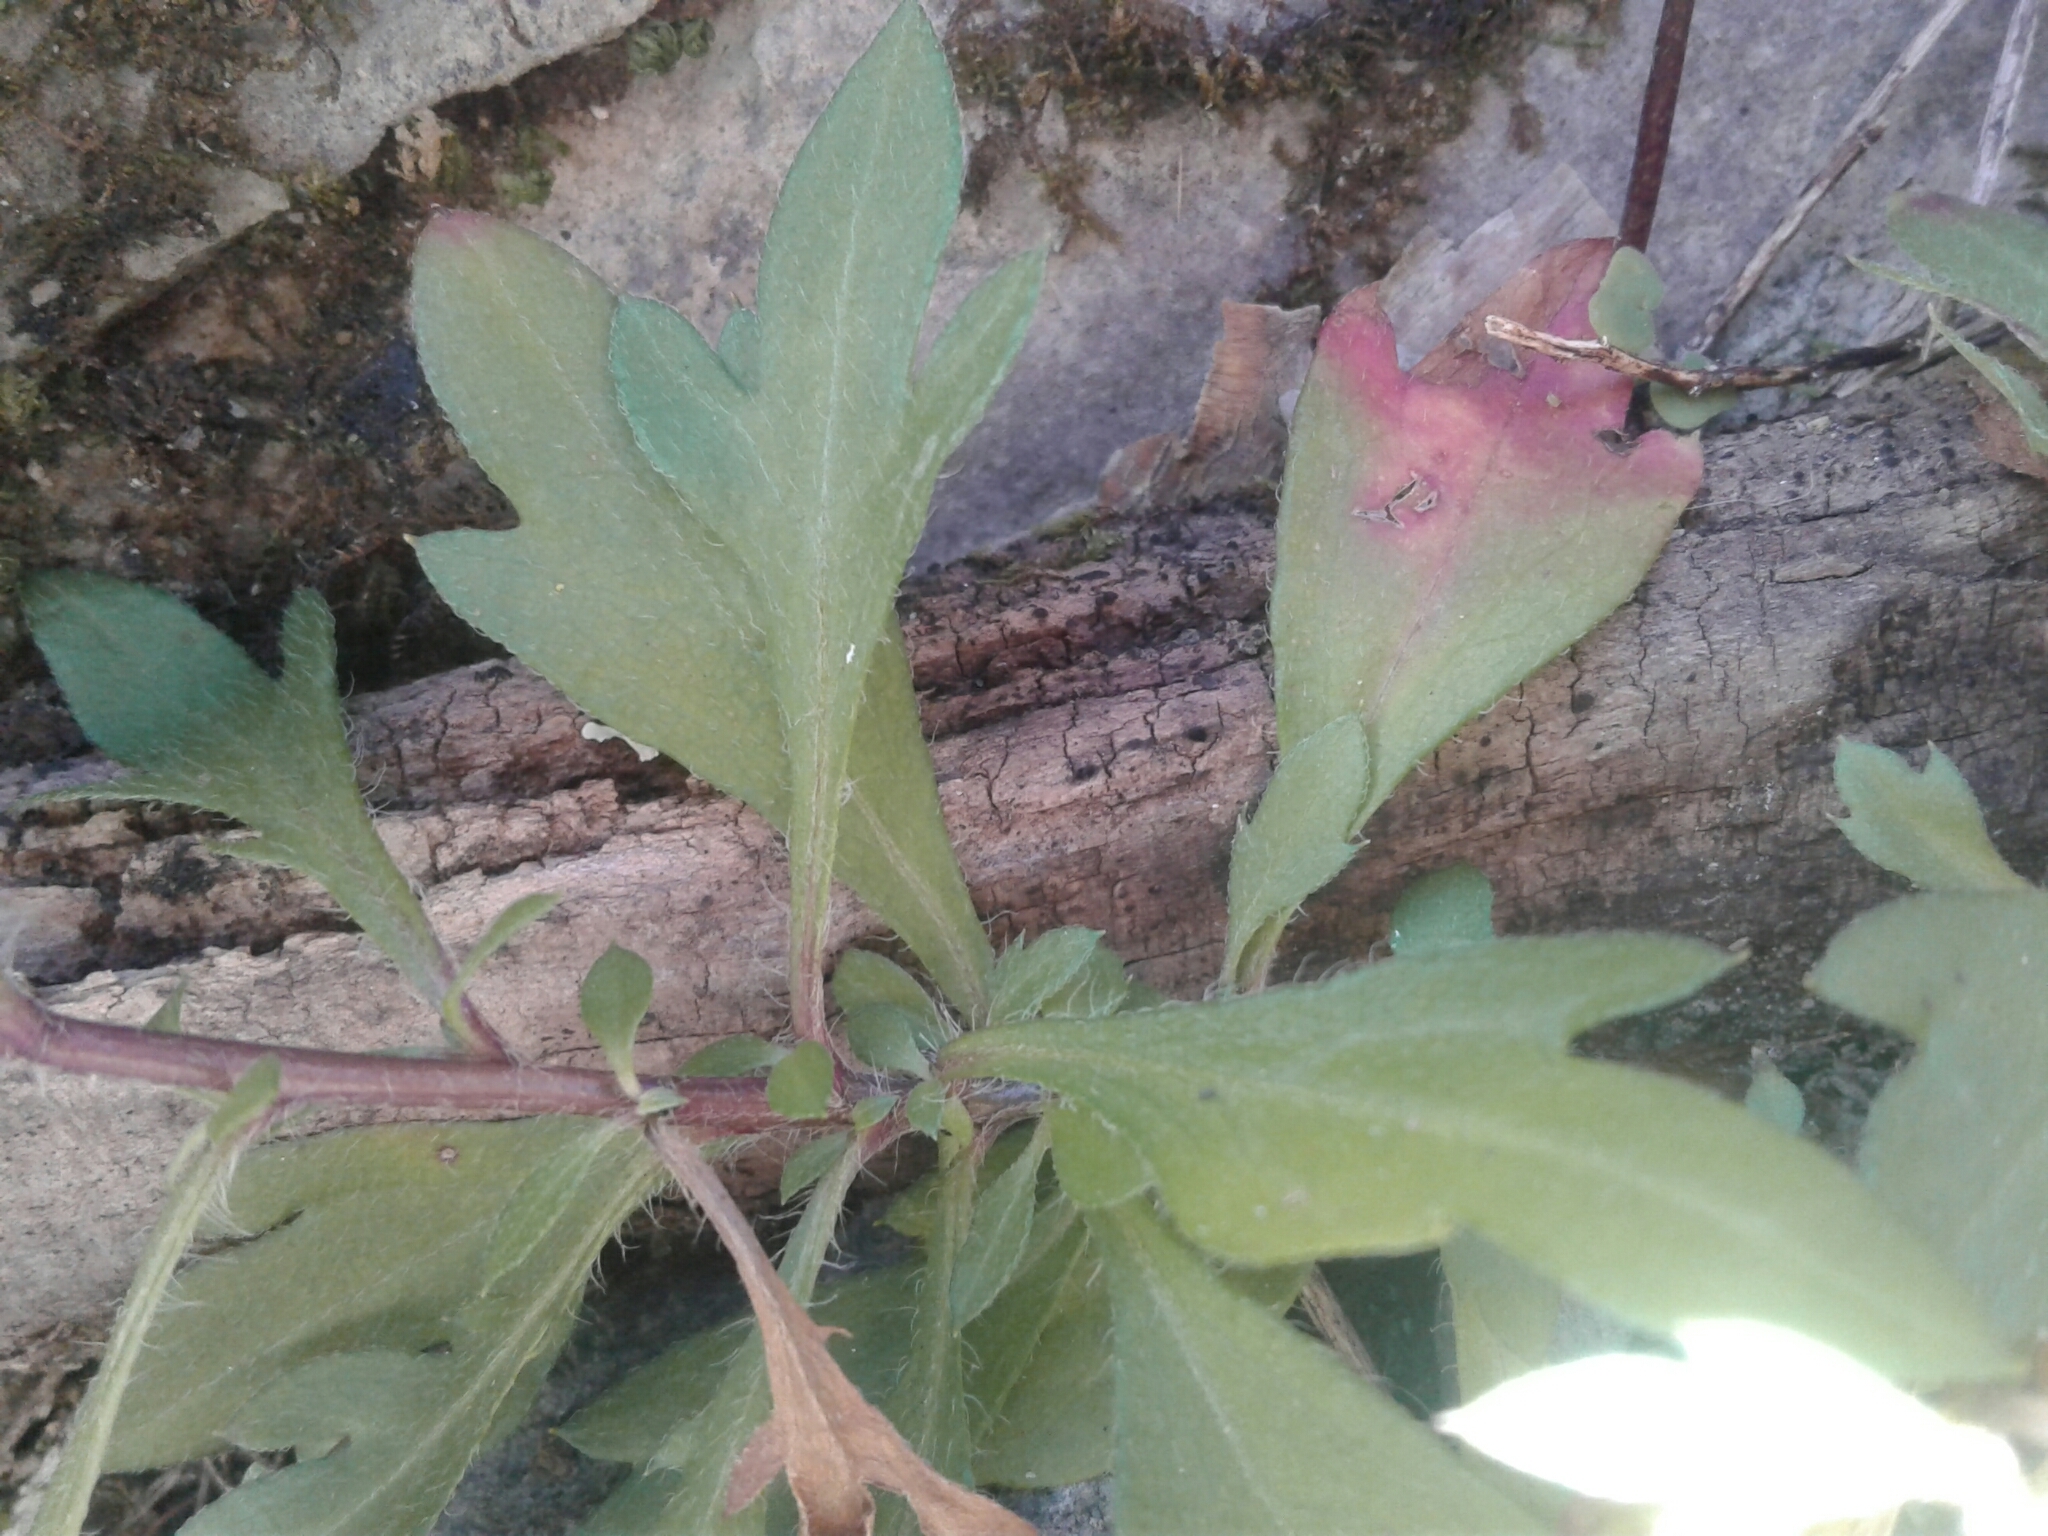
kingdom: Plantae
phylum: Tracheophyta
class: Magnoliopsida
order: Asterales
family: Asteraceae
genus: Erigeron
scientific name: Erigeron karvinskianus
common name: Mexican fleabane
